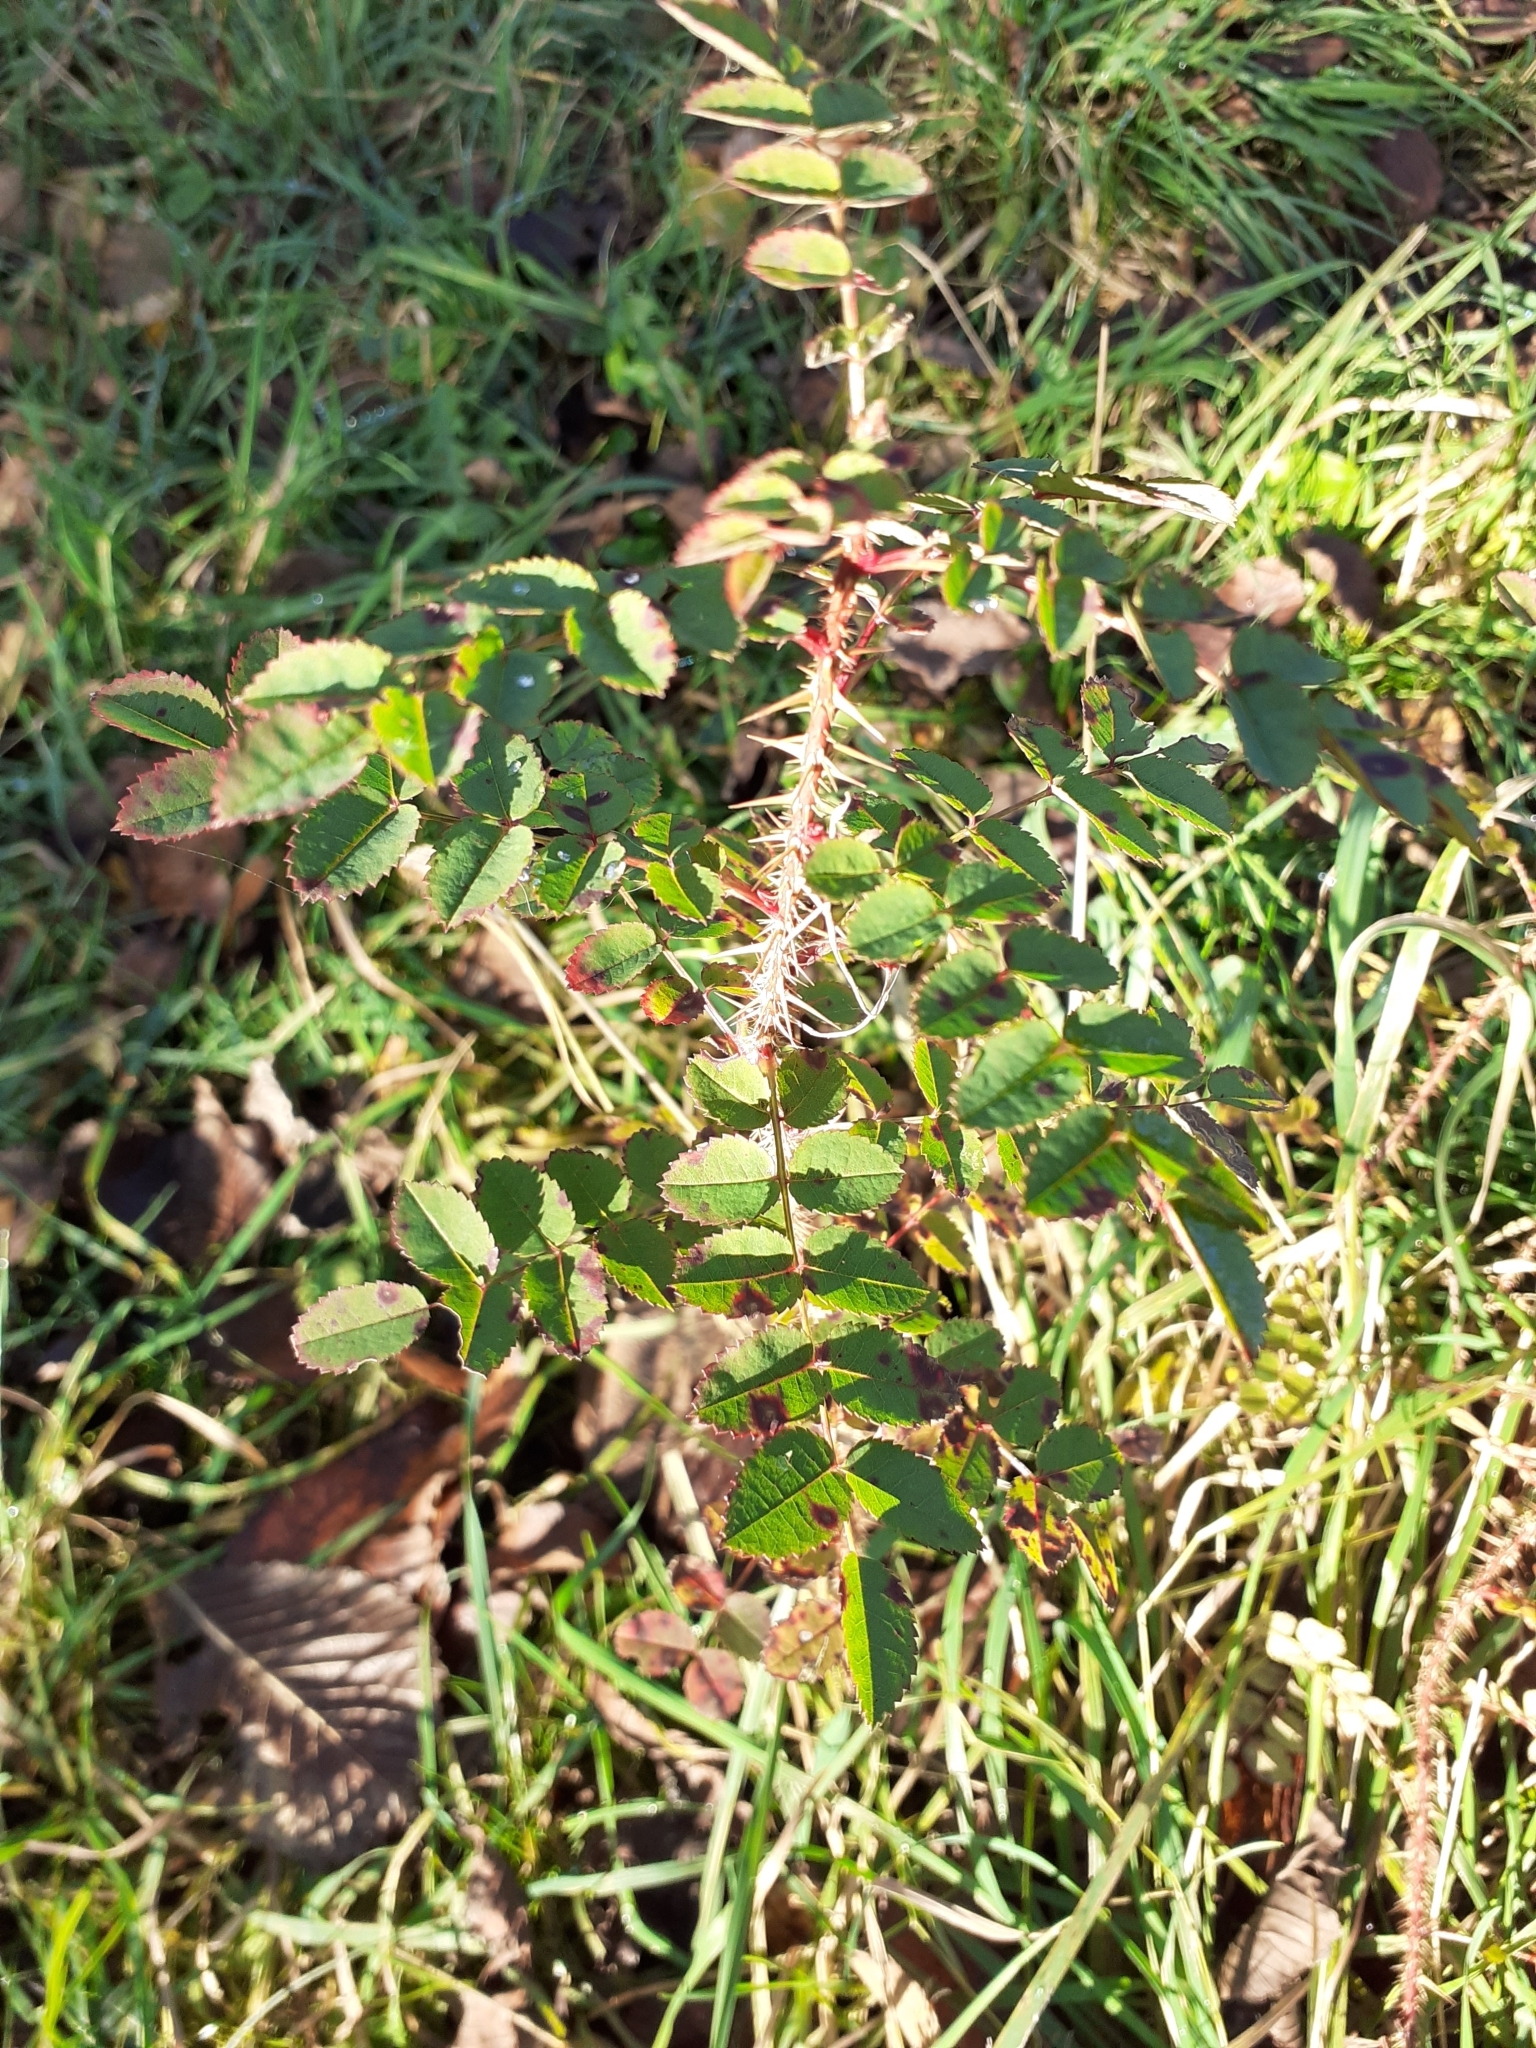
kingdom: Plantae
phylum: Tracheophyta
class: Magnoliopsida
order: Rosales
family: Rosaceae
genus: Rosa
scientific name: Rosa spinosissima
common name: Burnet rose
